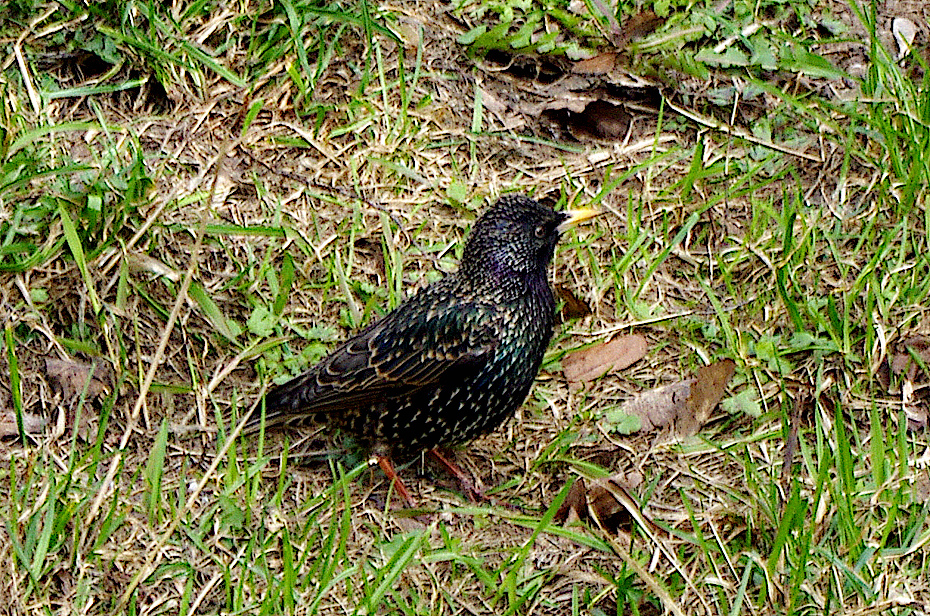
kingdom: Animalia
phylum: Chordata
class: Aves
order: Passeriformes
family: Sturnidae
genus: Sturnus
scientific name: Sturnus vulgaris
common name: Common starling
